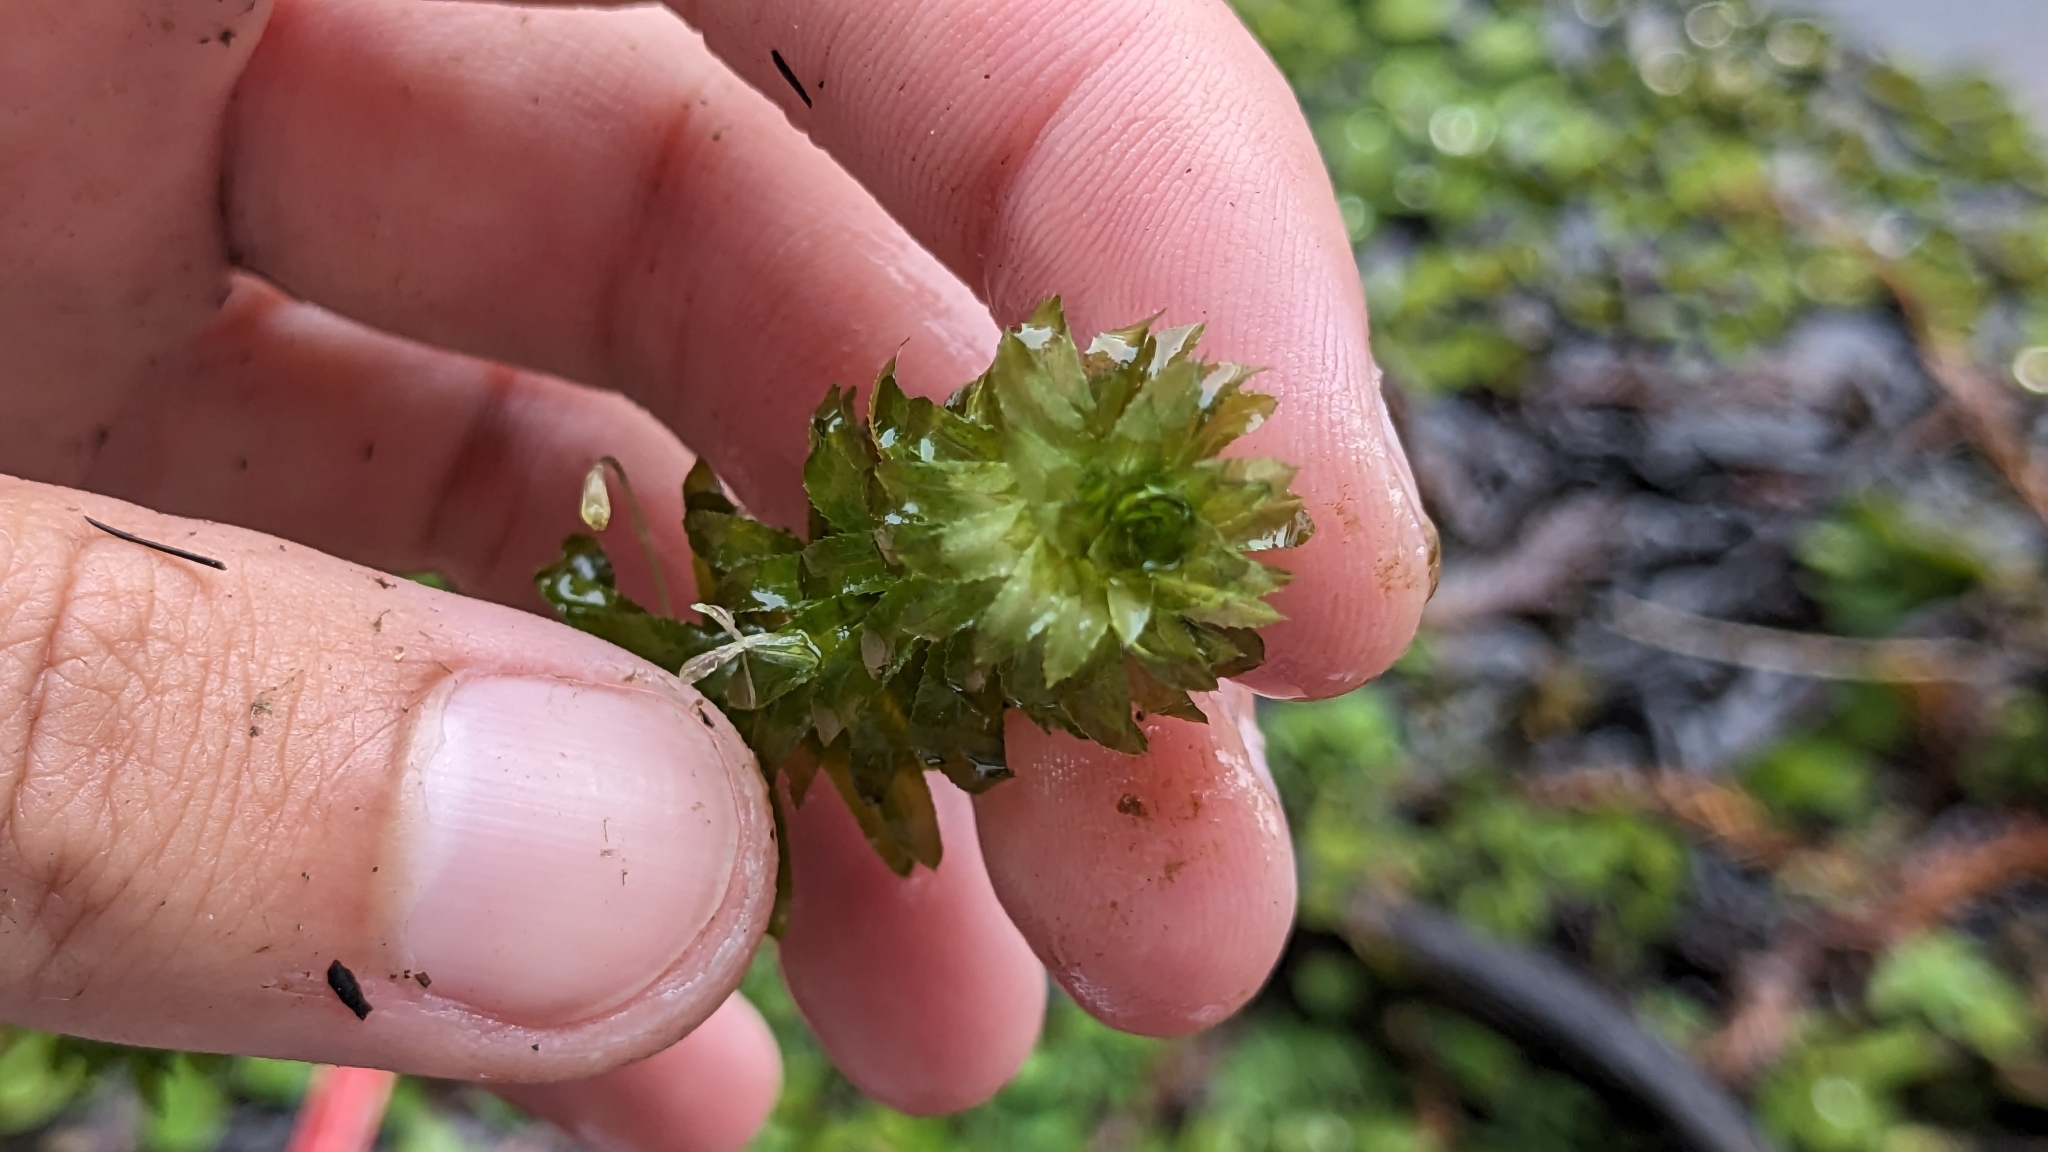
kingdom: Plantae
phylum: Tracheophyta
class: Liliopsida
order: Alismatales
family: Hydrocharitaceae
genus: Hydrilla
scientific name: Hydrilla verticillata
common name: Florida-elodea
